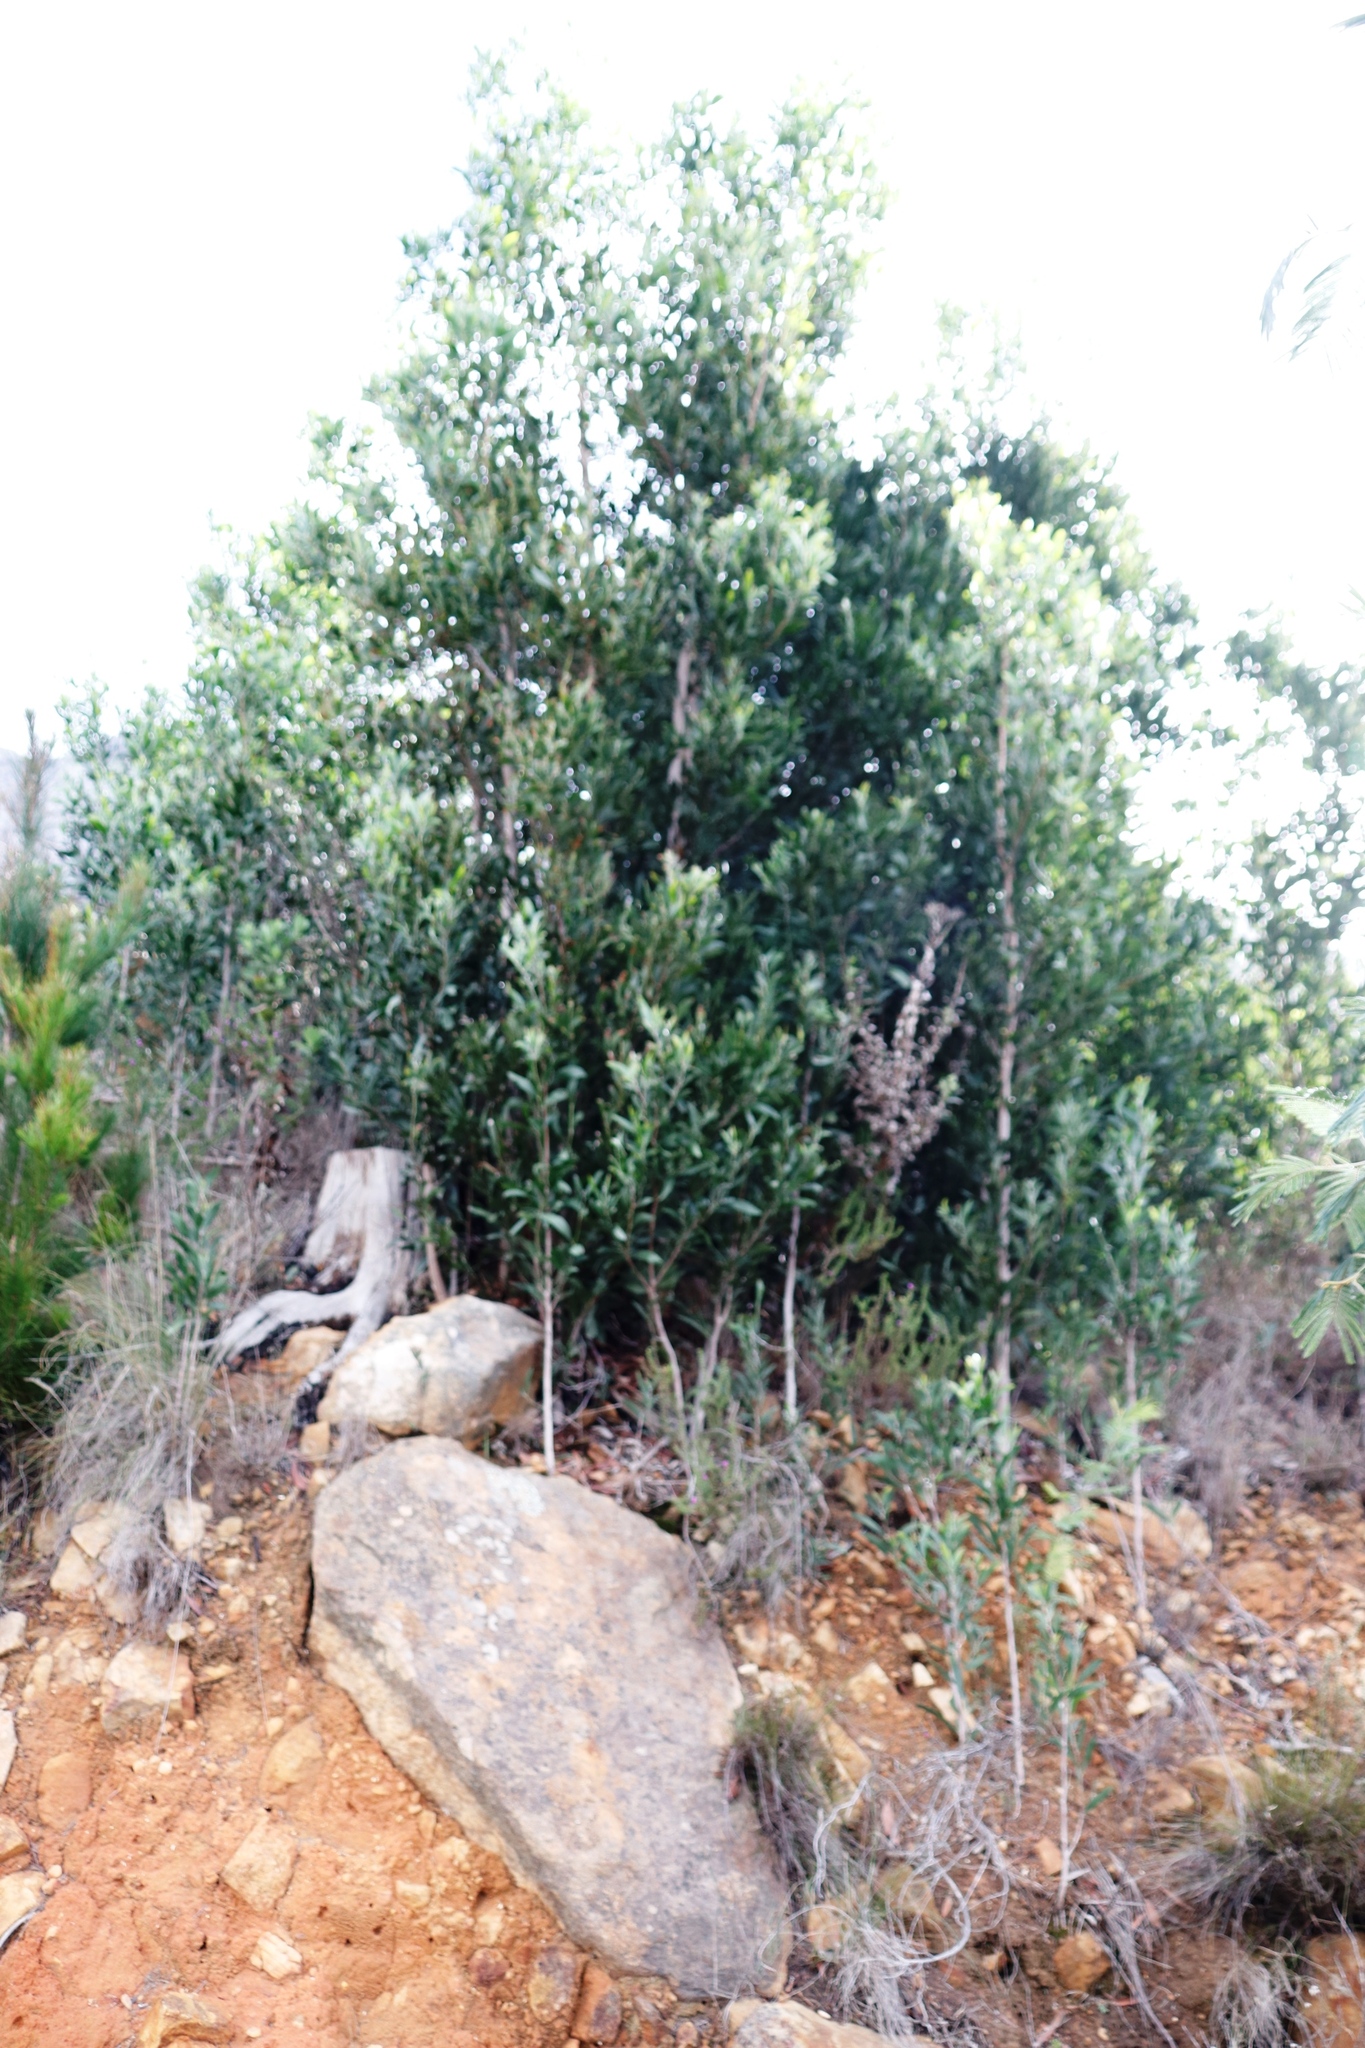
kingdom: Plantae
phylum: Tracheophyta
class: Magnoliopsida
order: Fabales
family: Fabaceae
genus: Acacia
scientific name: Acacia melanoxylon
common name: Blackwood
